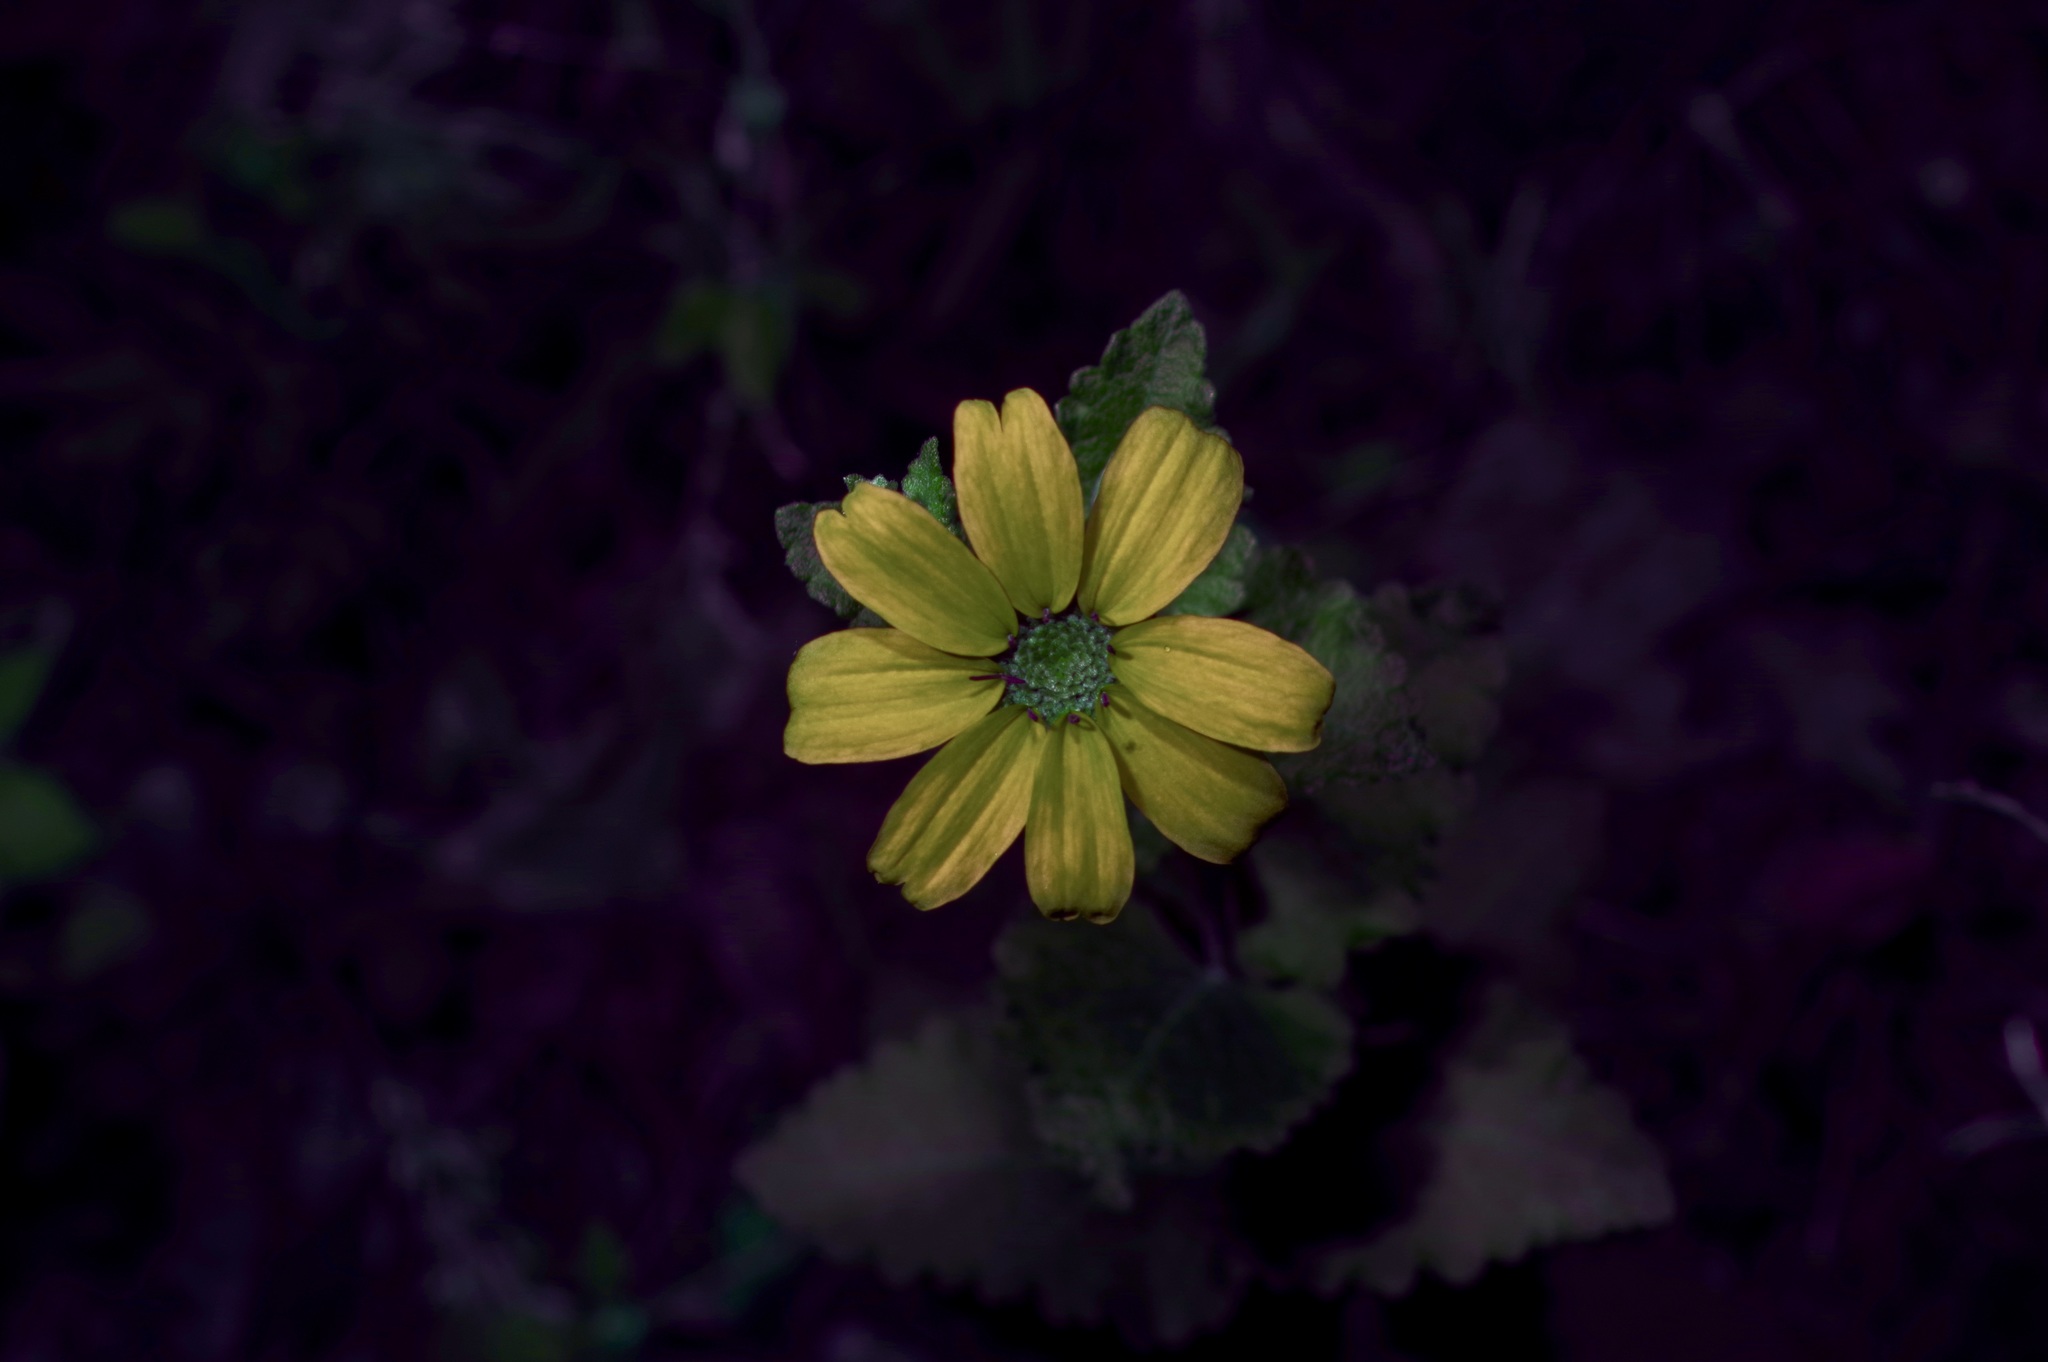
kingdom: Plantae
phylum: Tracheophyta
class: Magnoliopsida
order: Asterales
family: Asteraceae
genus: Berlandiera
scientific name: Berlandiera pumila
